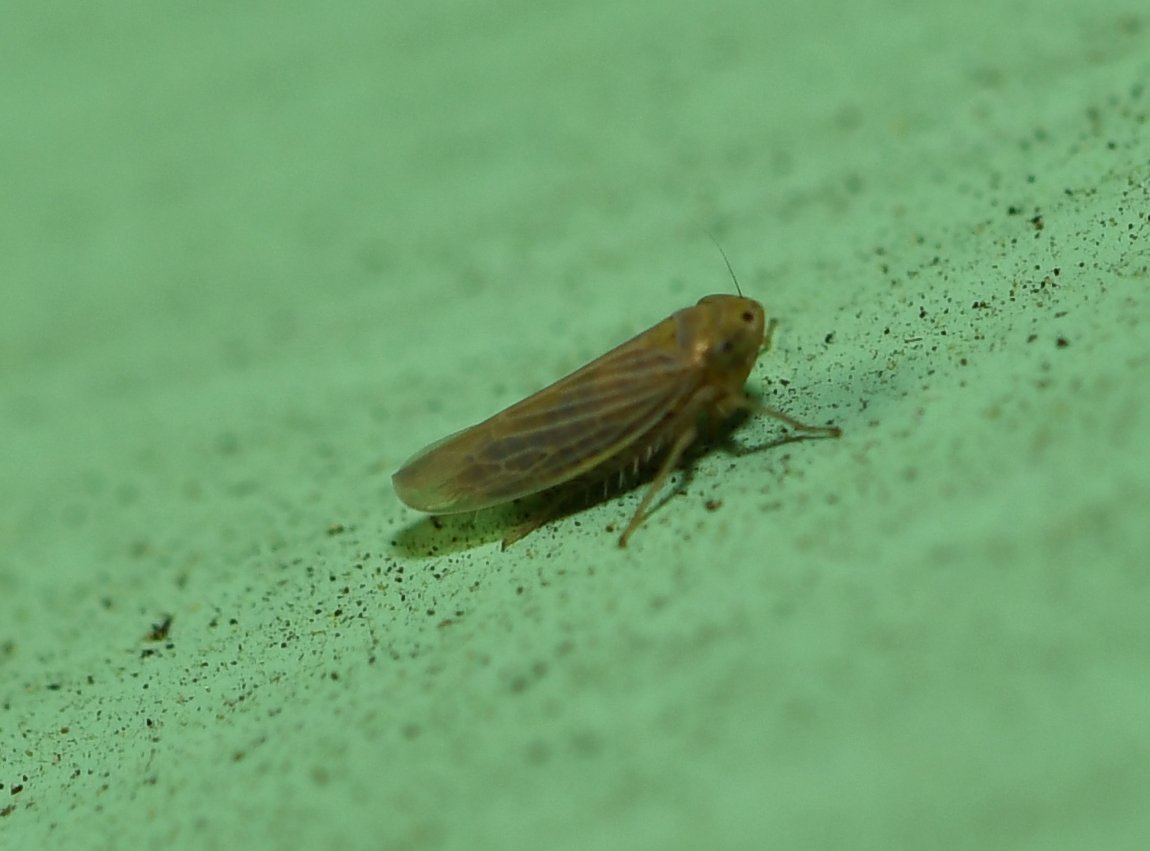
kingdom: Animalia
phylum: Arthropoda
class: Insecta
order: Hemiptera
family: Cicadellidae
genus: Graminella
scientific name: Graminella cognita
